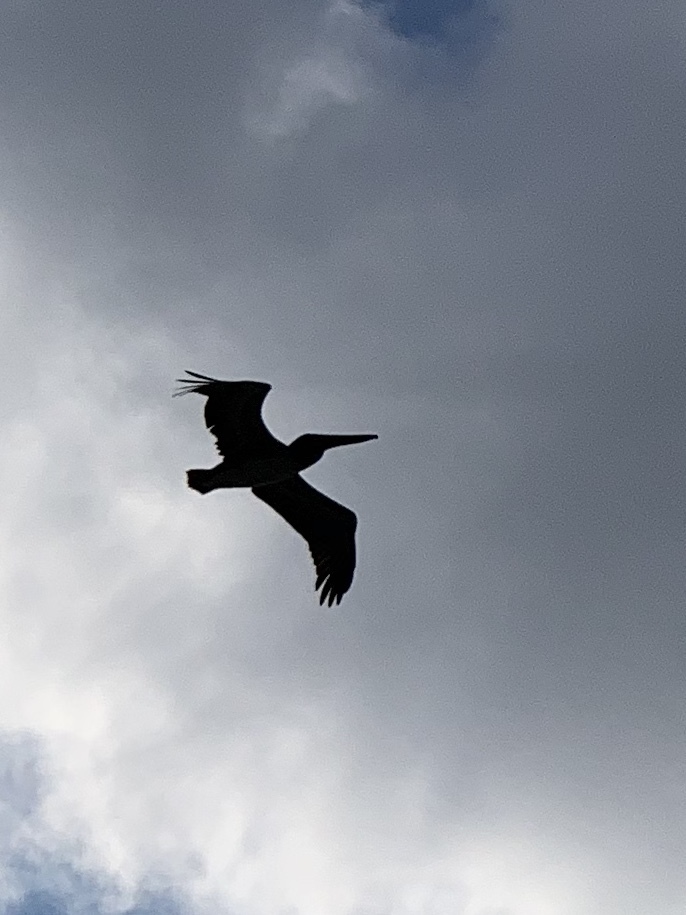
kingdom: Animalia
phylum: Chordata
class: Aves
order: Pelecaniformes
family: Pelecanidae
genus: Pelecanus
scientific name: Pelecanus occidentalis
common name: Brown pelican
